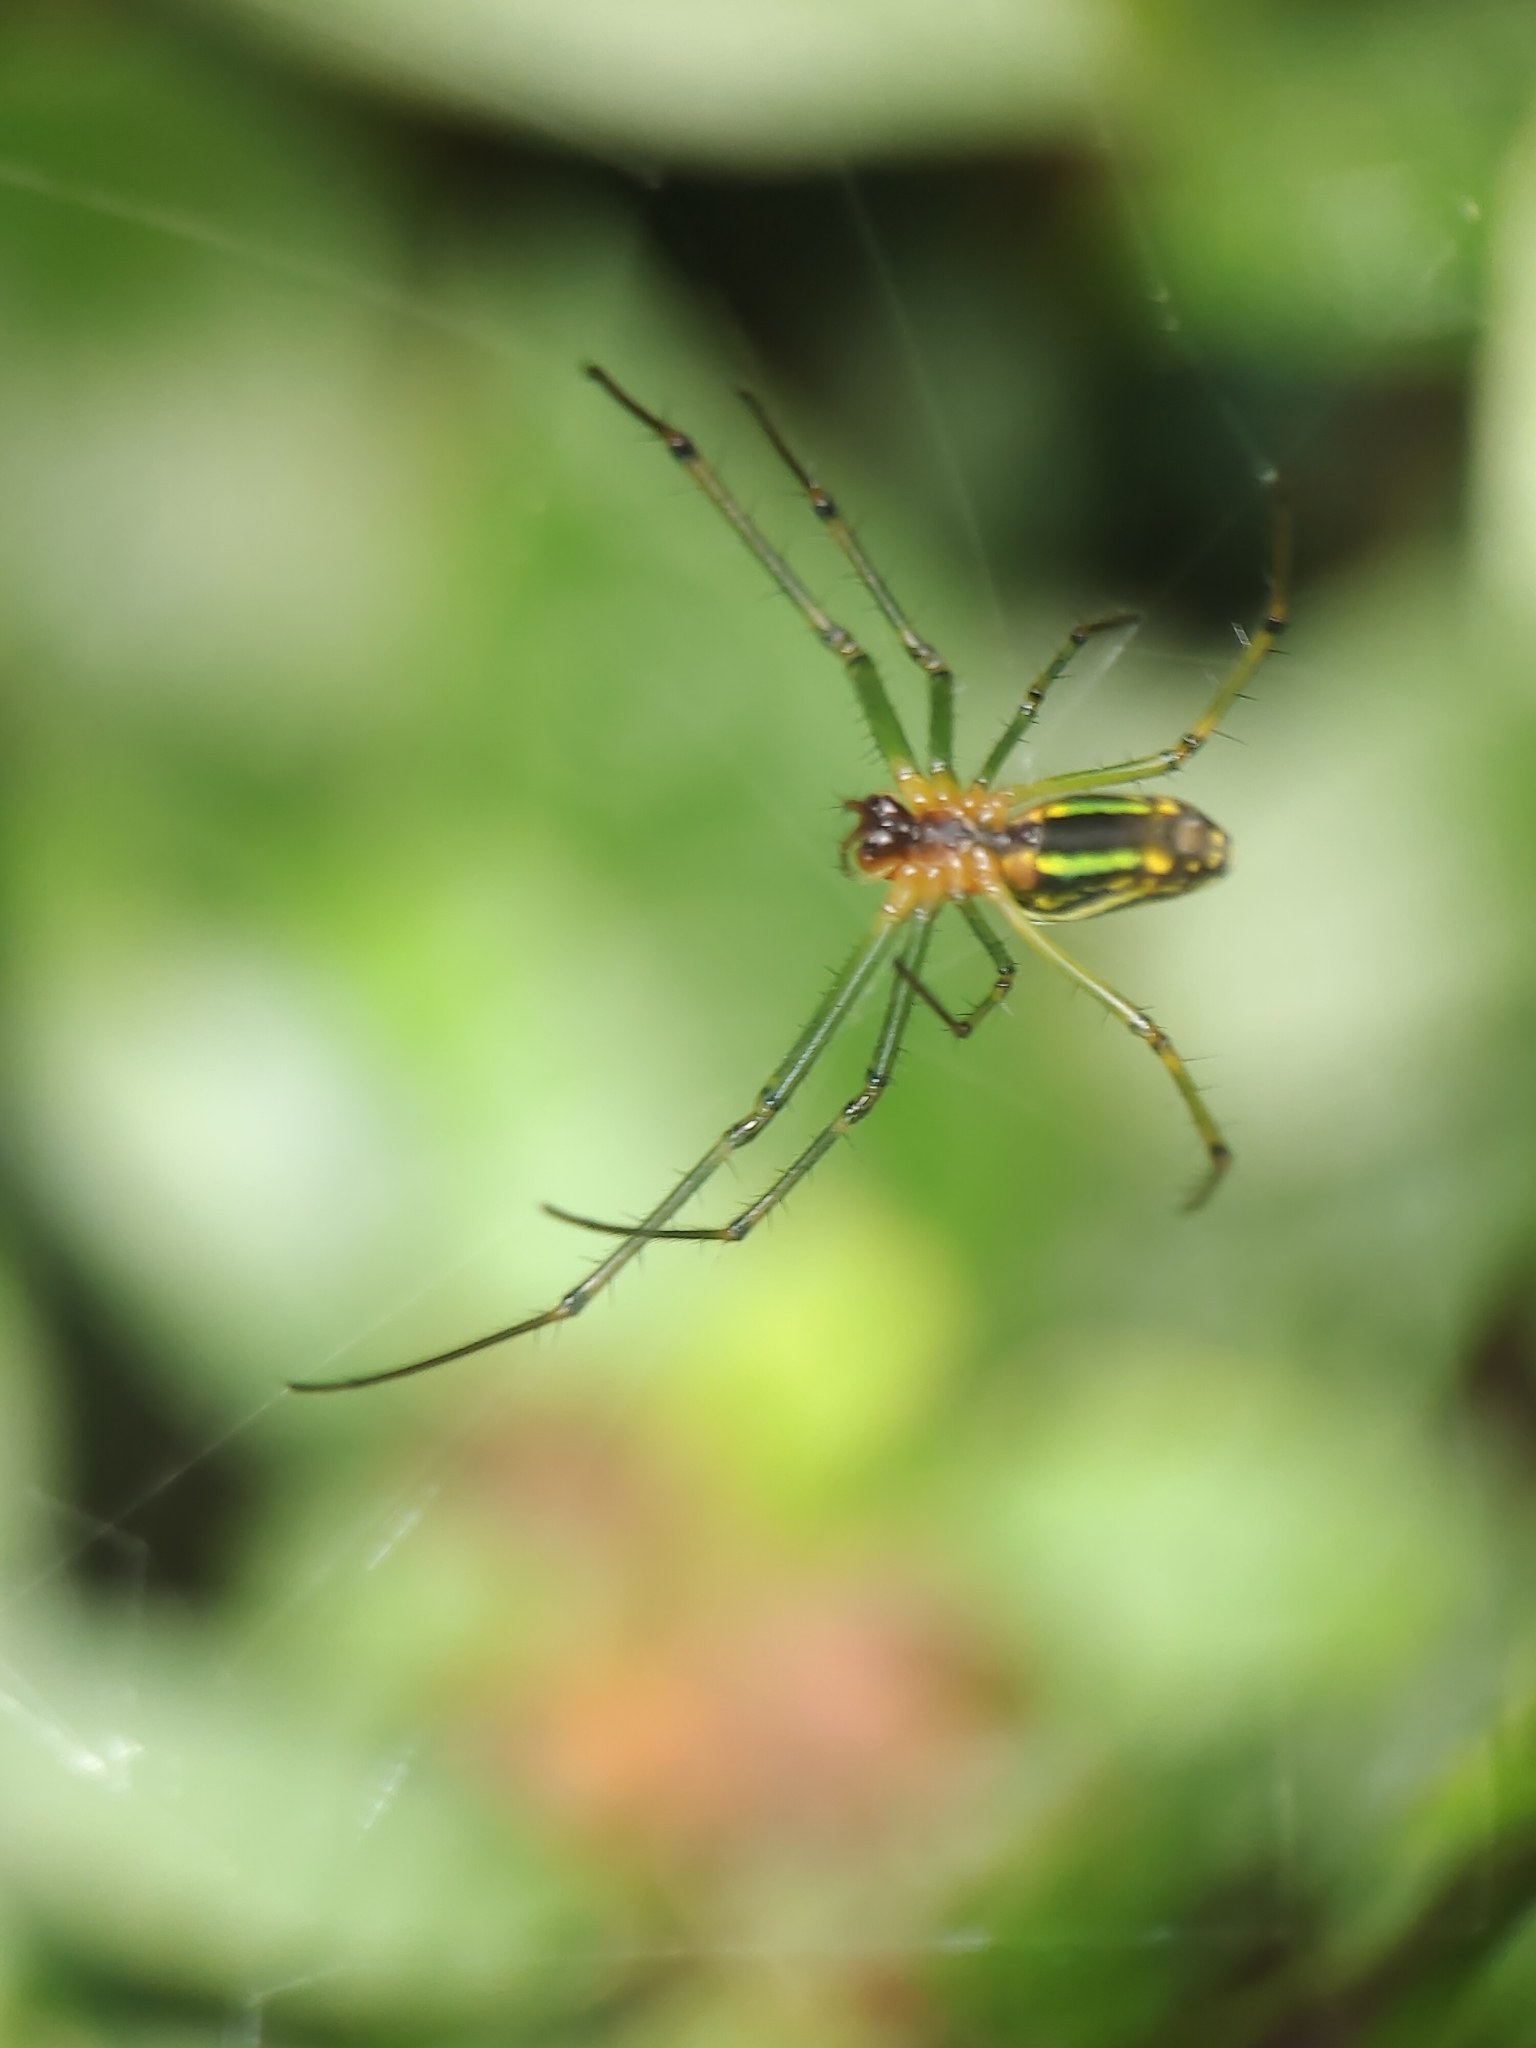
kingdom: Animalia
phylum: Arthropoda
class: Arachnida
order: Araneae
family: Tetragnathidae
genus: Leucauge
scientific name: Leucauge celebesiana
